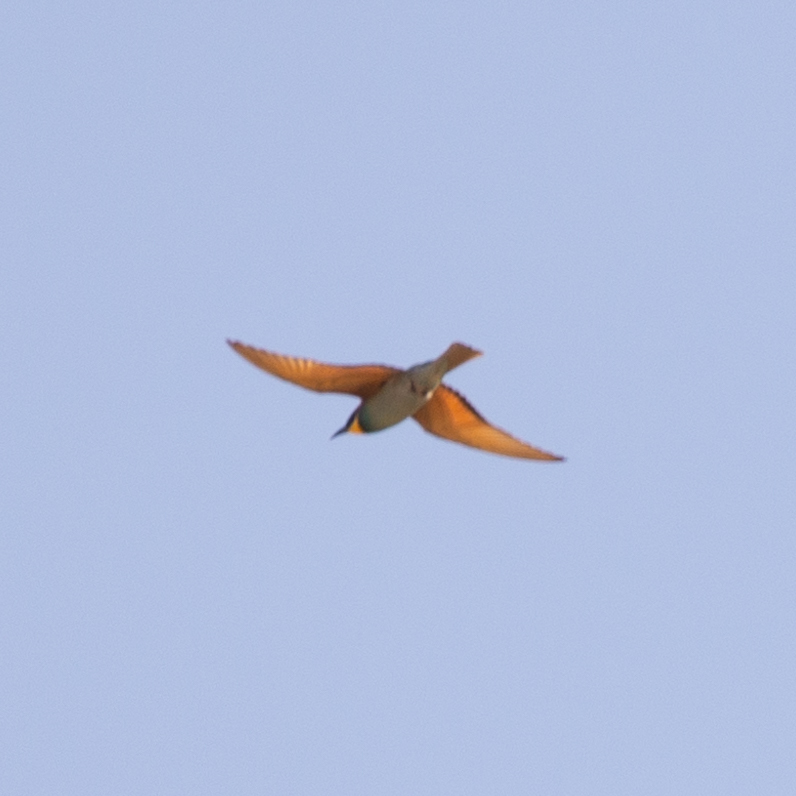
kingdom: Animalia
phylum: Chordata
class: Aves
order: Coraciiformes
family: Meropidae
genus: Merops
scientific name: Merops apiaster
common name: European bee-eater
